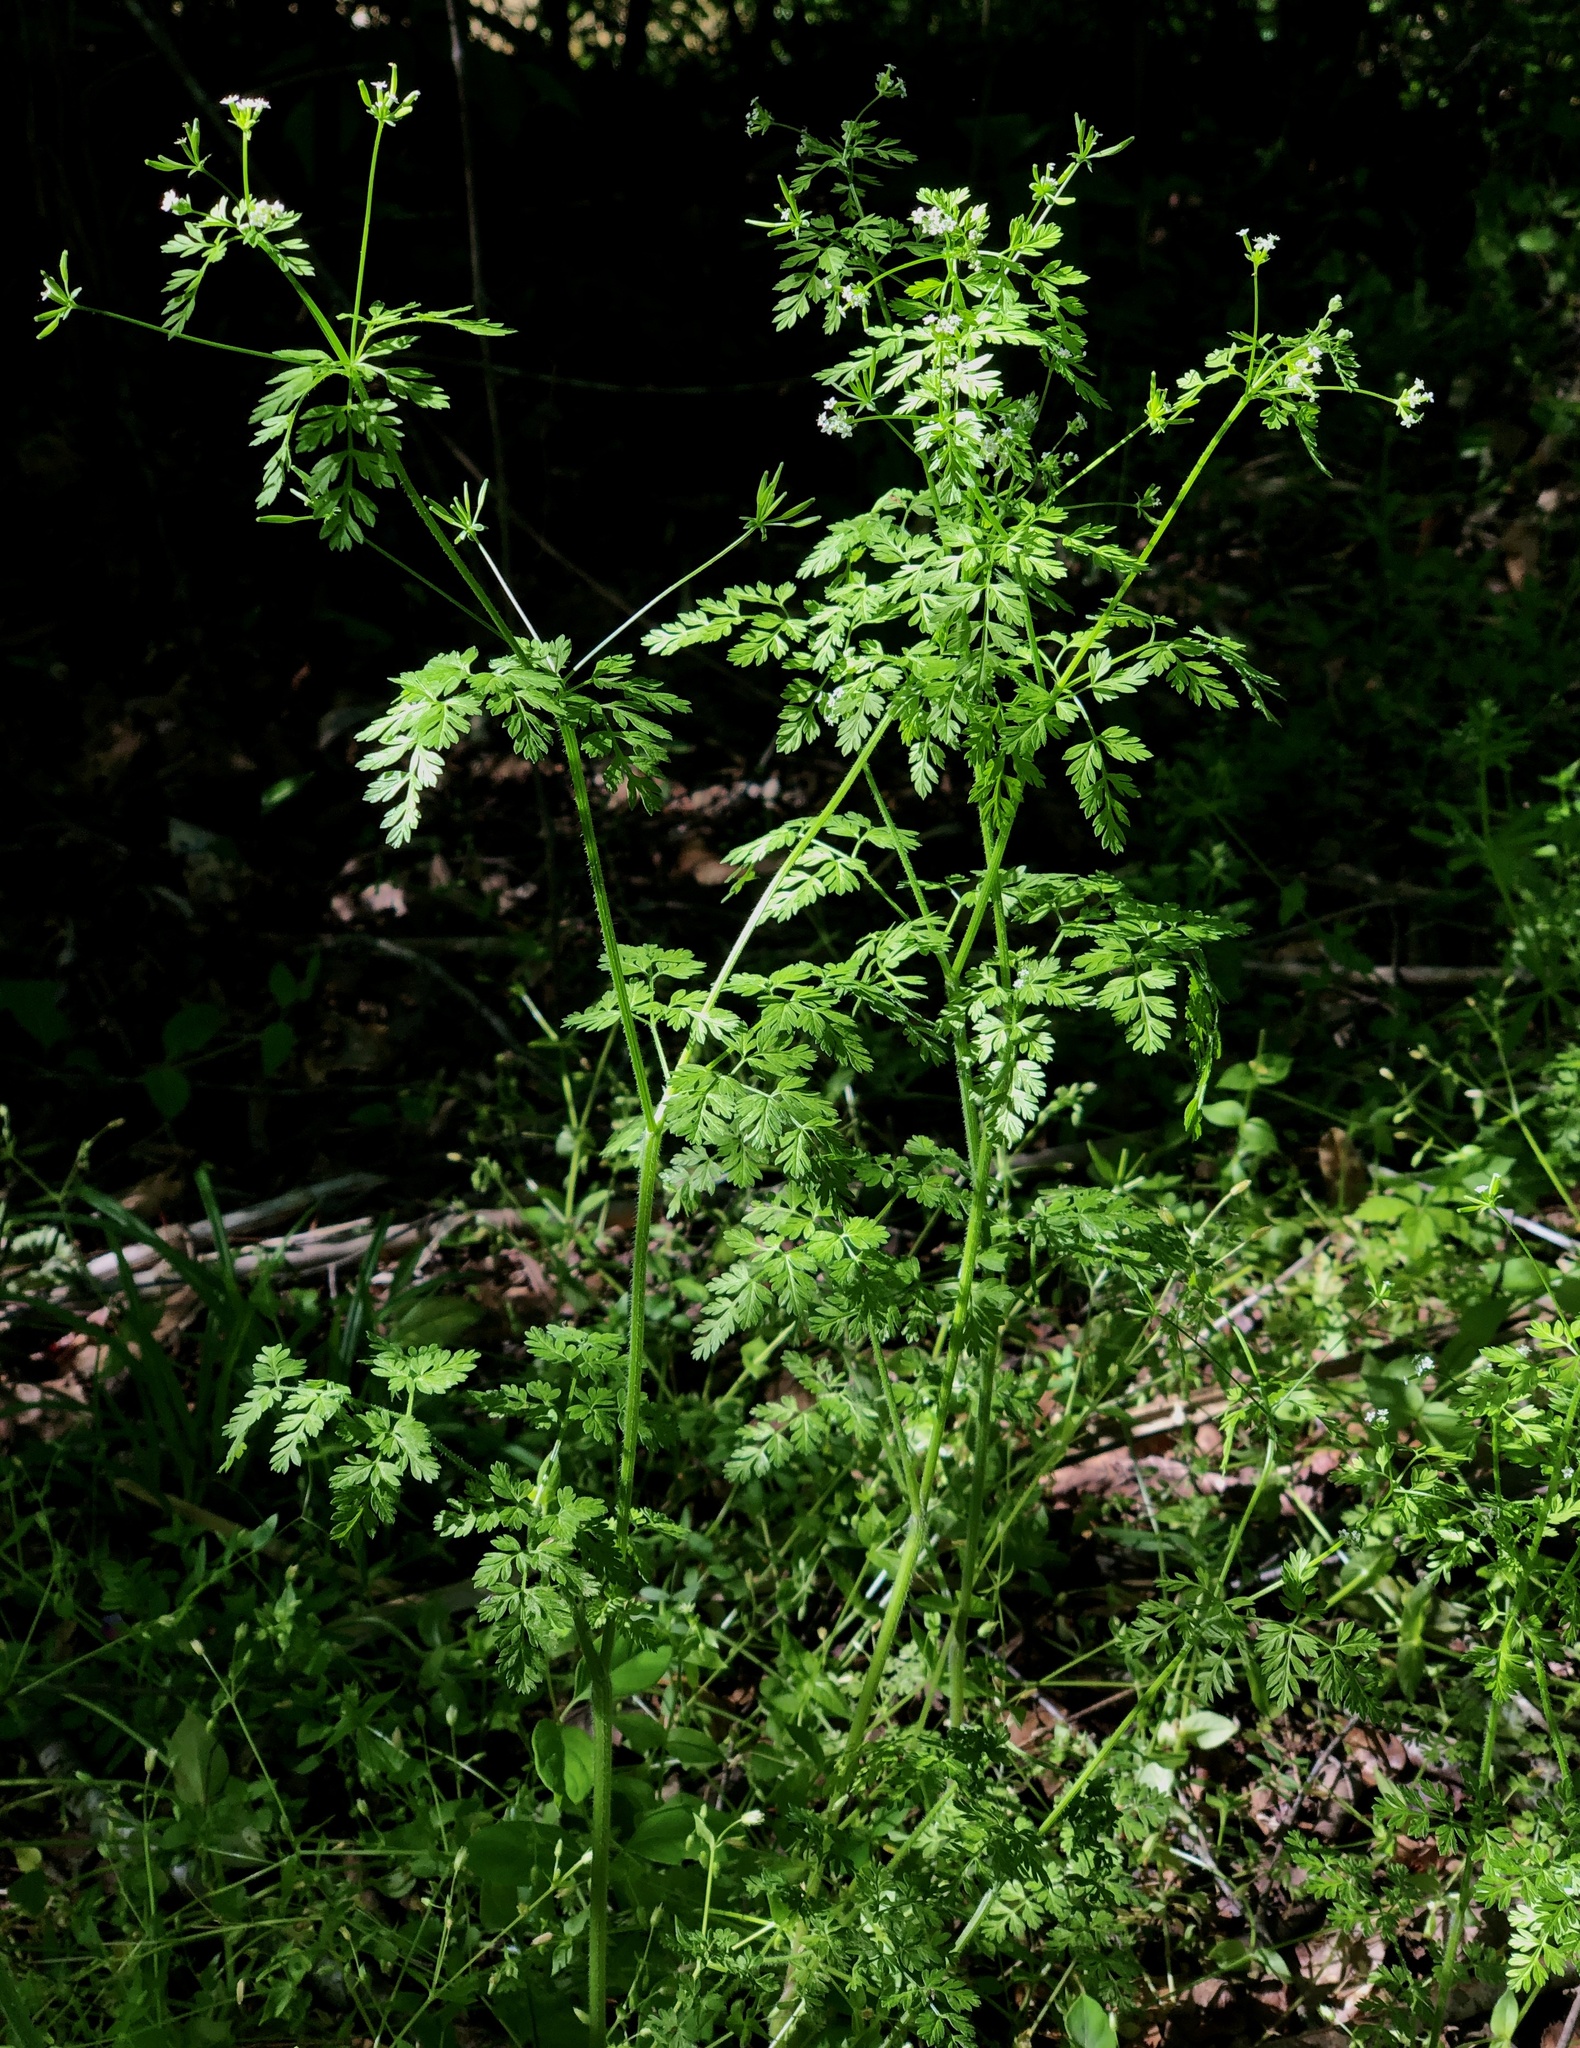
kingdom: Plantae
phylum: Tracheophyta
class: Magnoliopsida
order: Apiales
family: Apiaceae
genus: Chaerophyllum
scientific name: Chaerophyllum tainturieri
